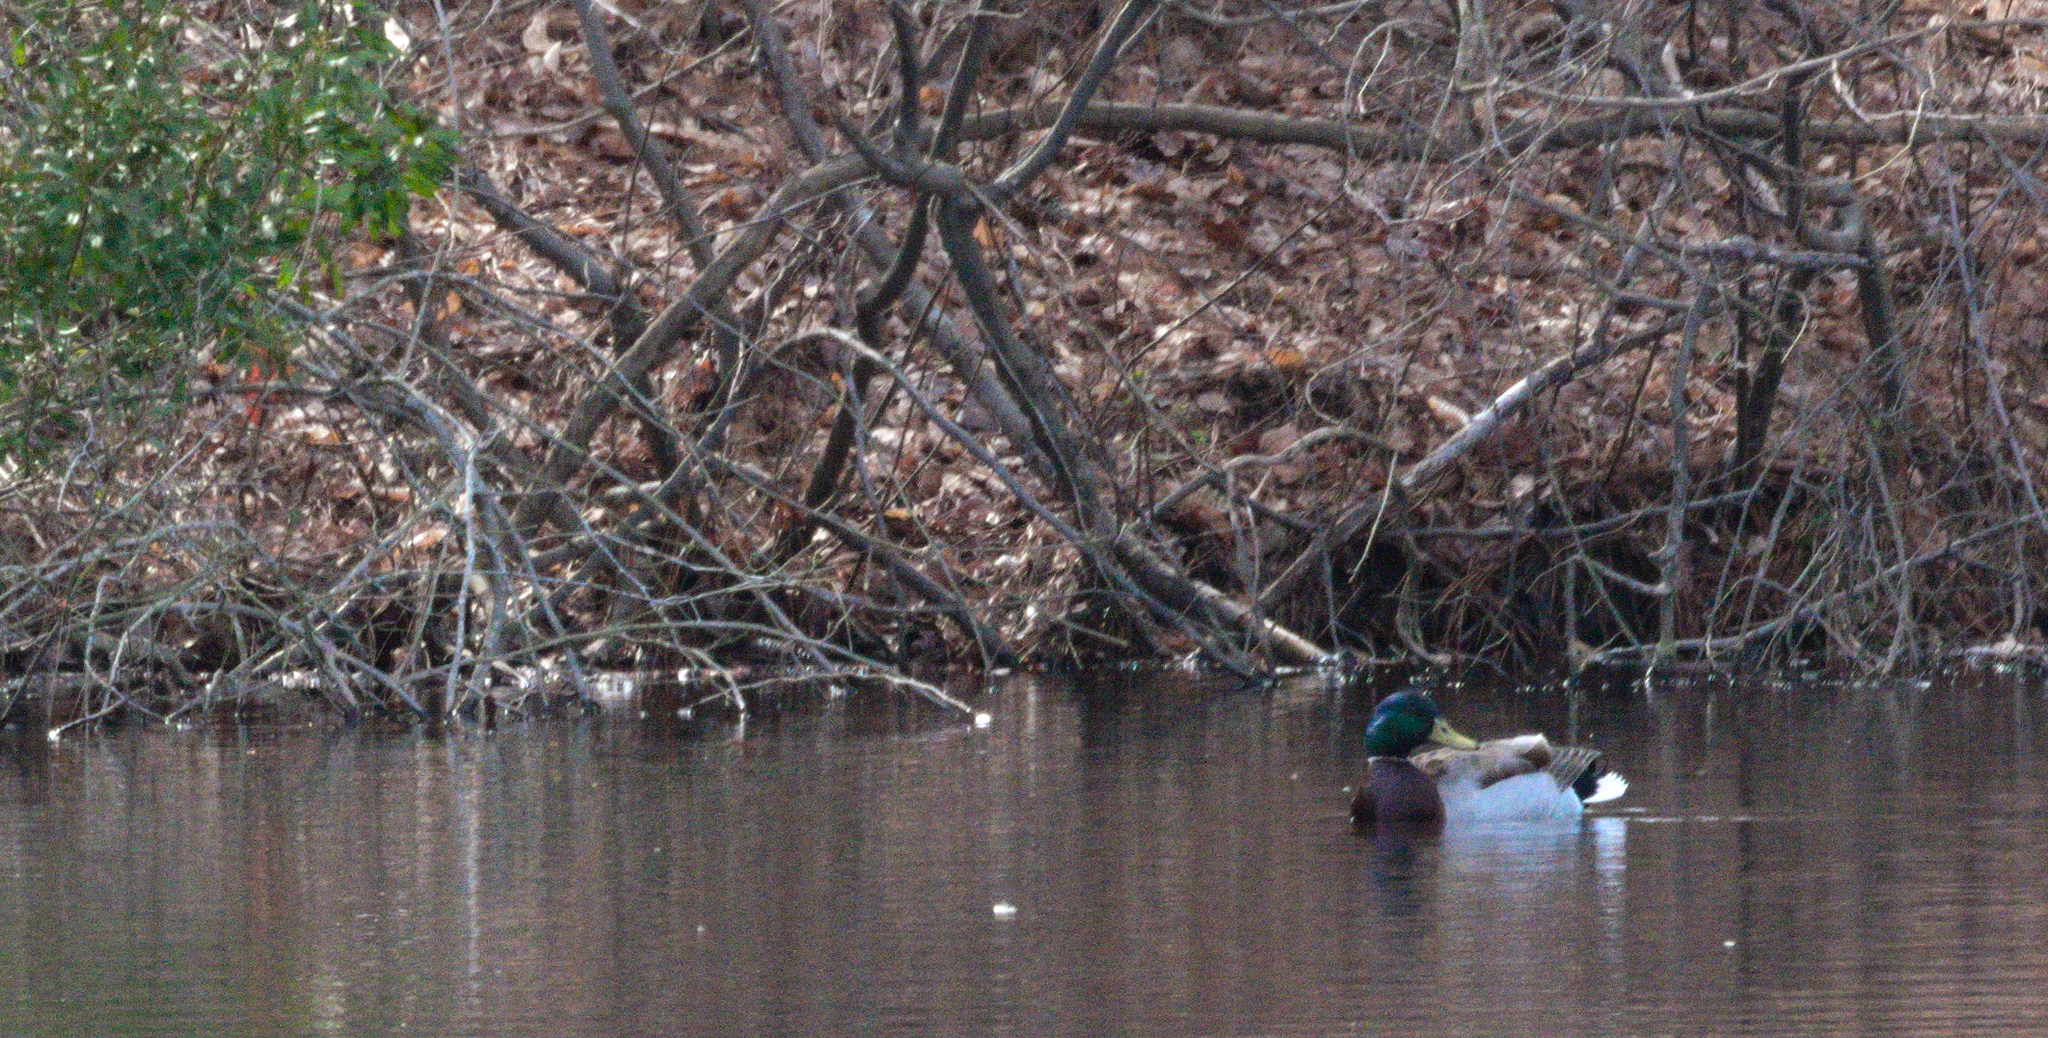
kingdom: Animalia
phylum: Chordata
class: Aves
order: Anseriformes
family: Anatidae
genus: Anas
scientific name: Anas platyrhynchos
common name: Mallard
